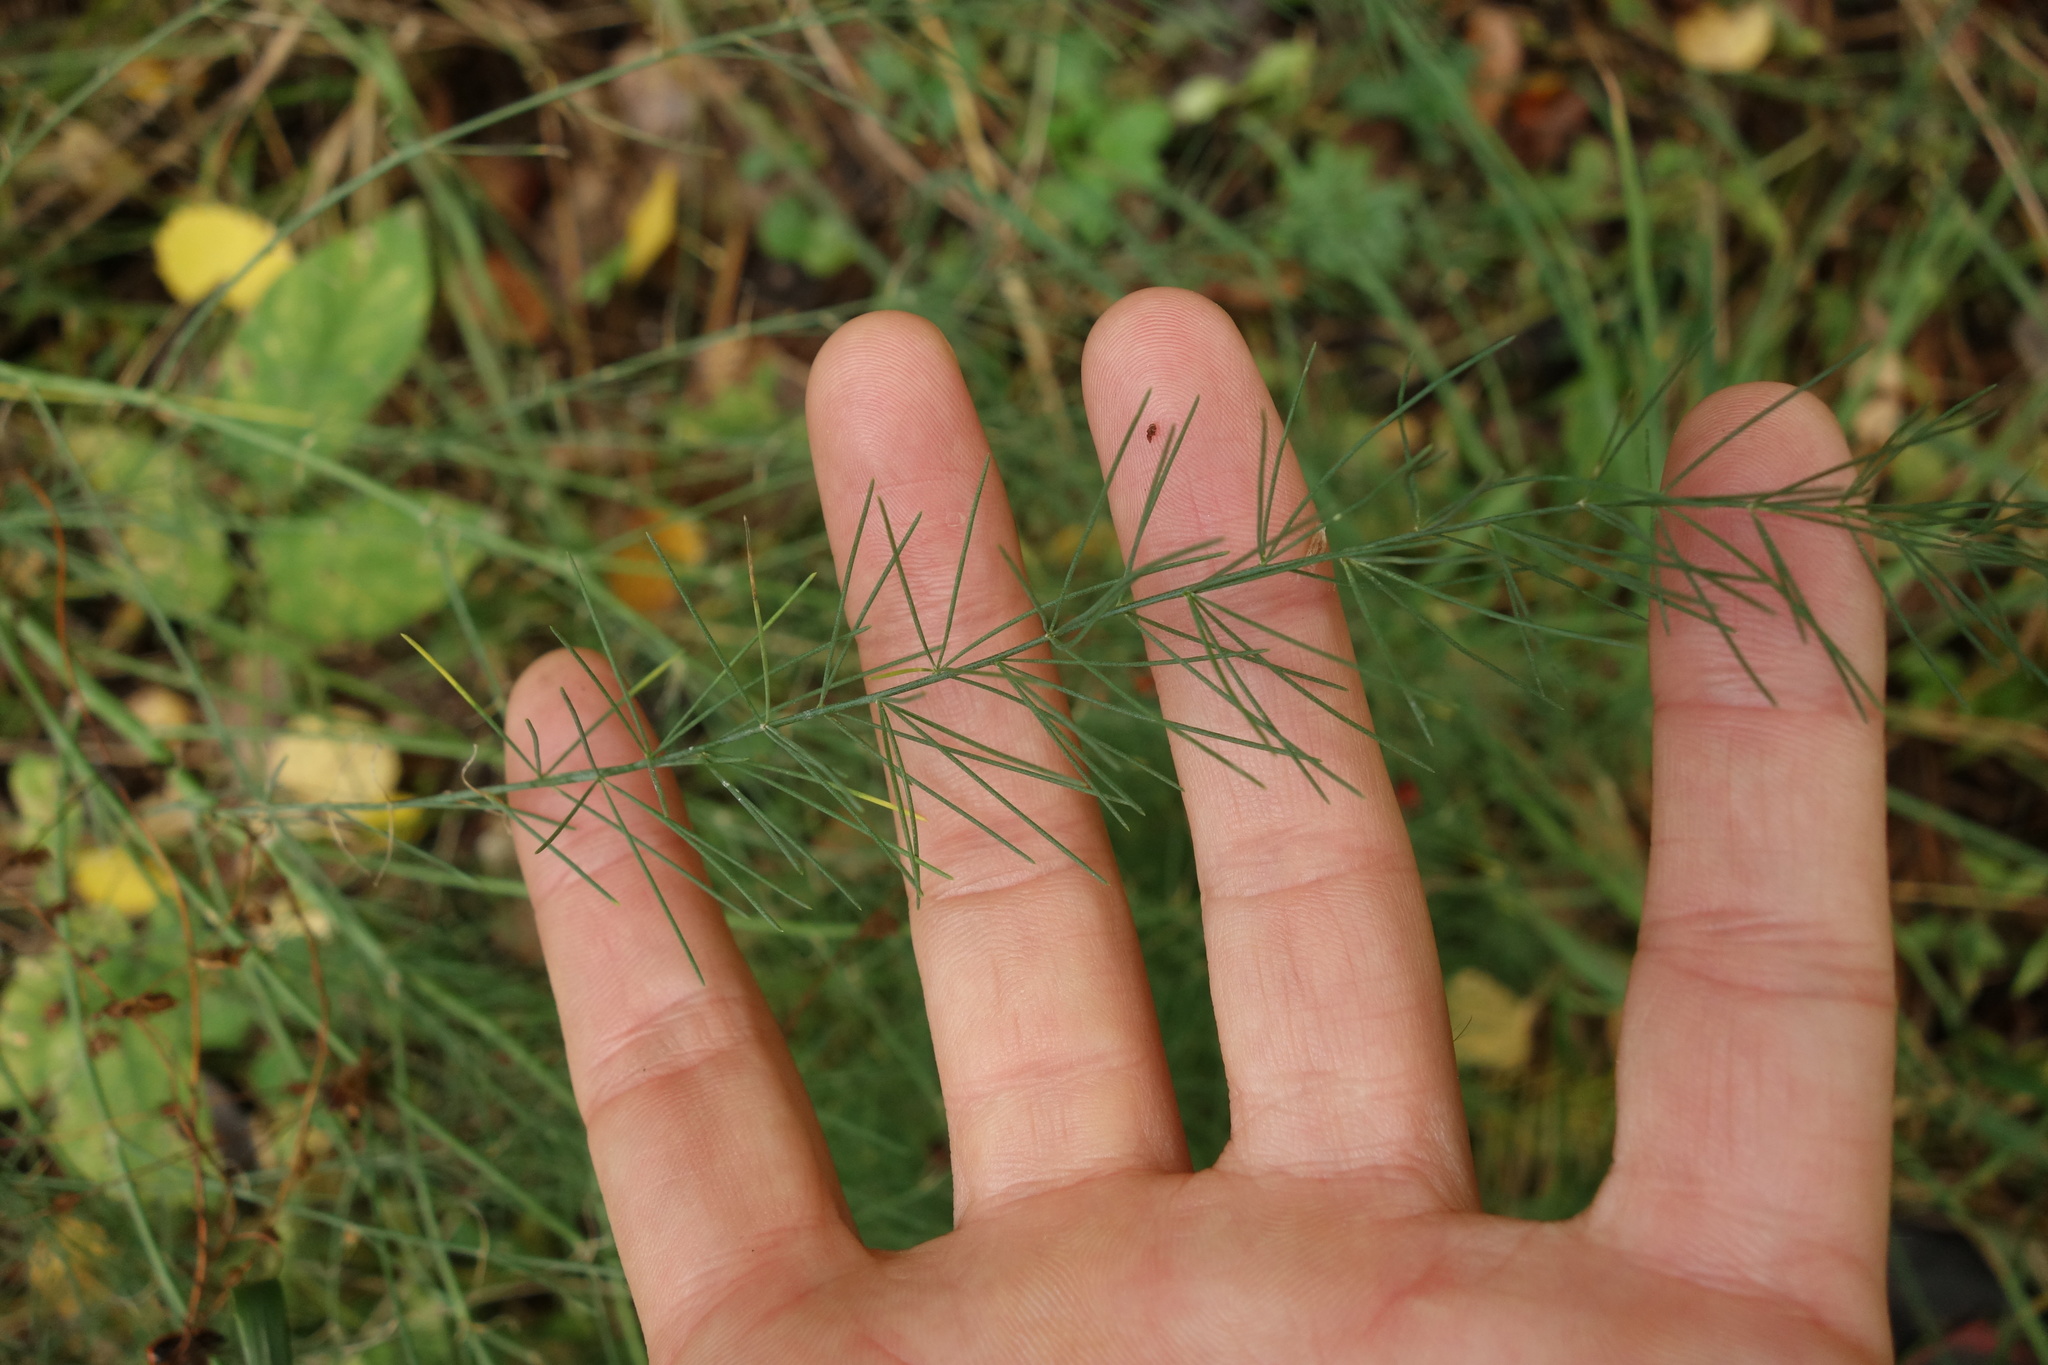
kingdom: Plantae
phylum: Tracheophyta
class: Liliopsida
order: Asparagales
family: Asparagaceae
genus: Asparagus
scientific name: Asparagus officinalis
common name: Garden asparagus
